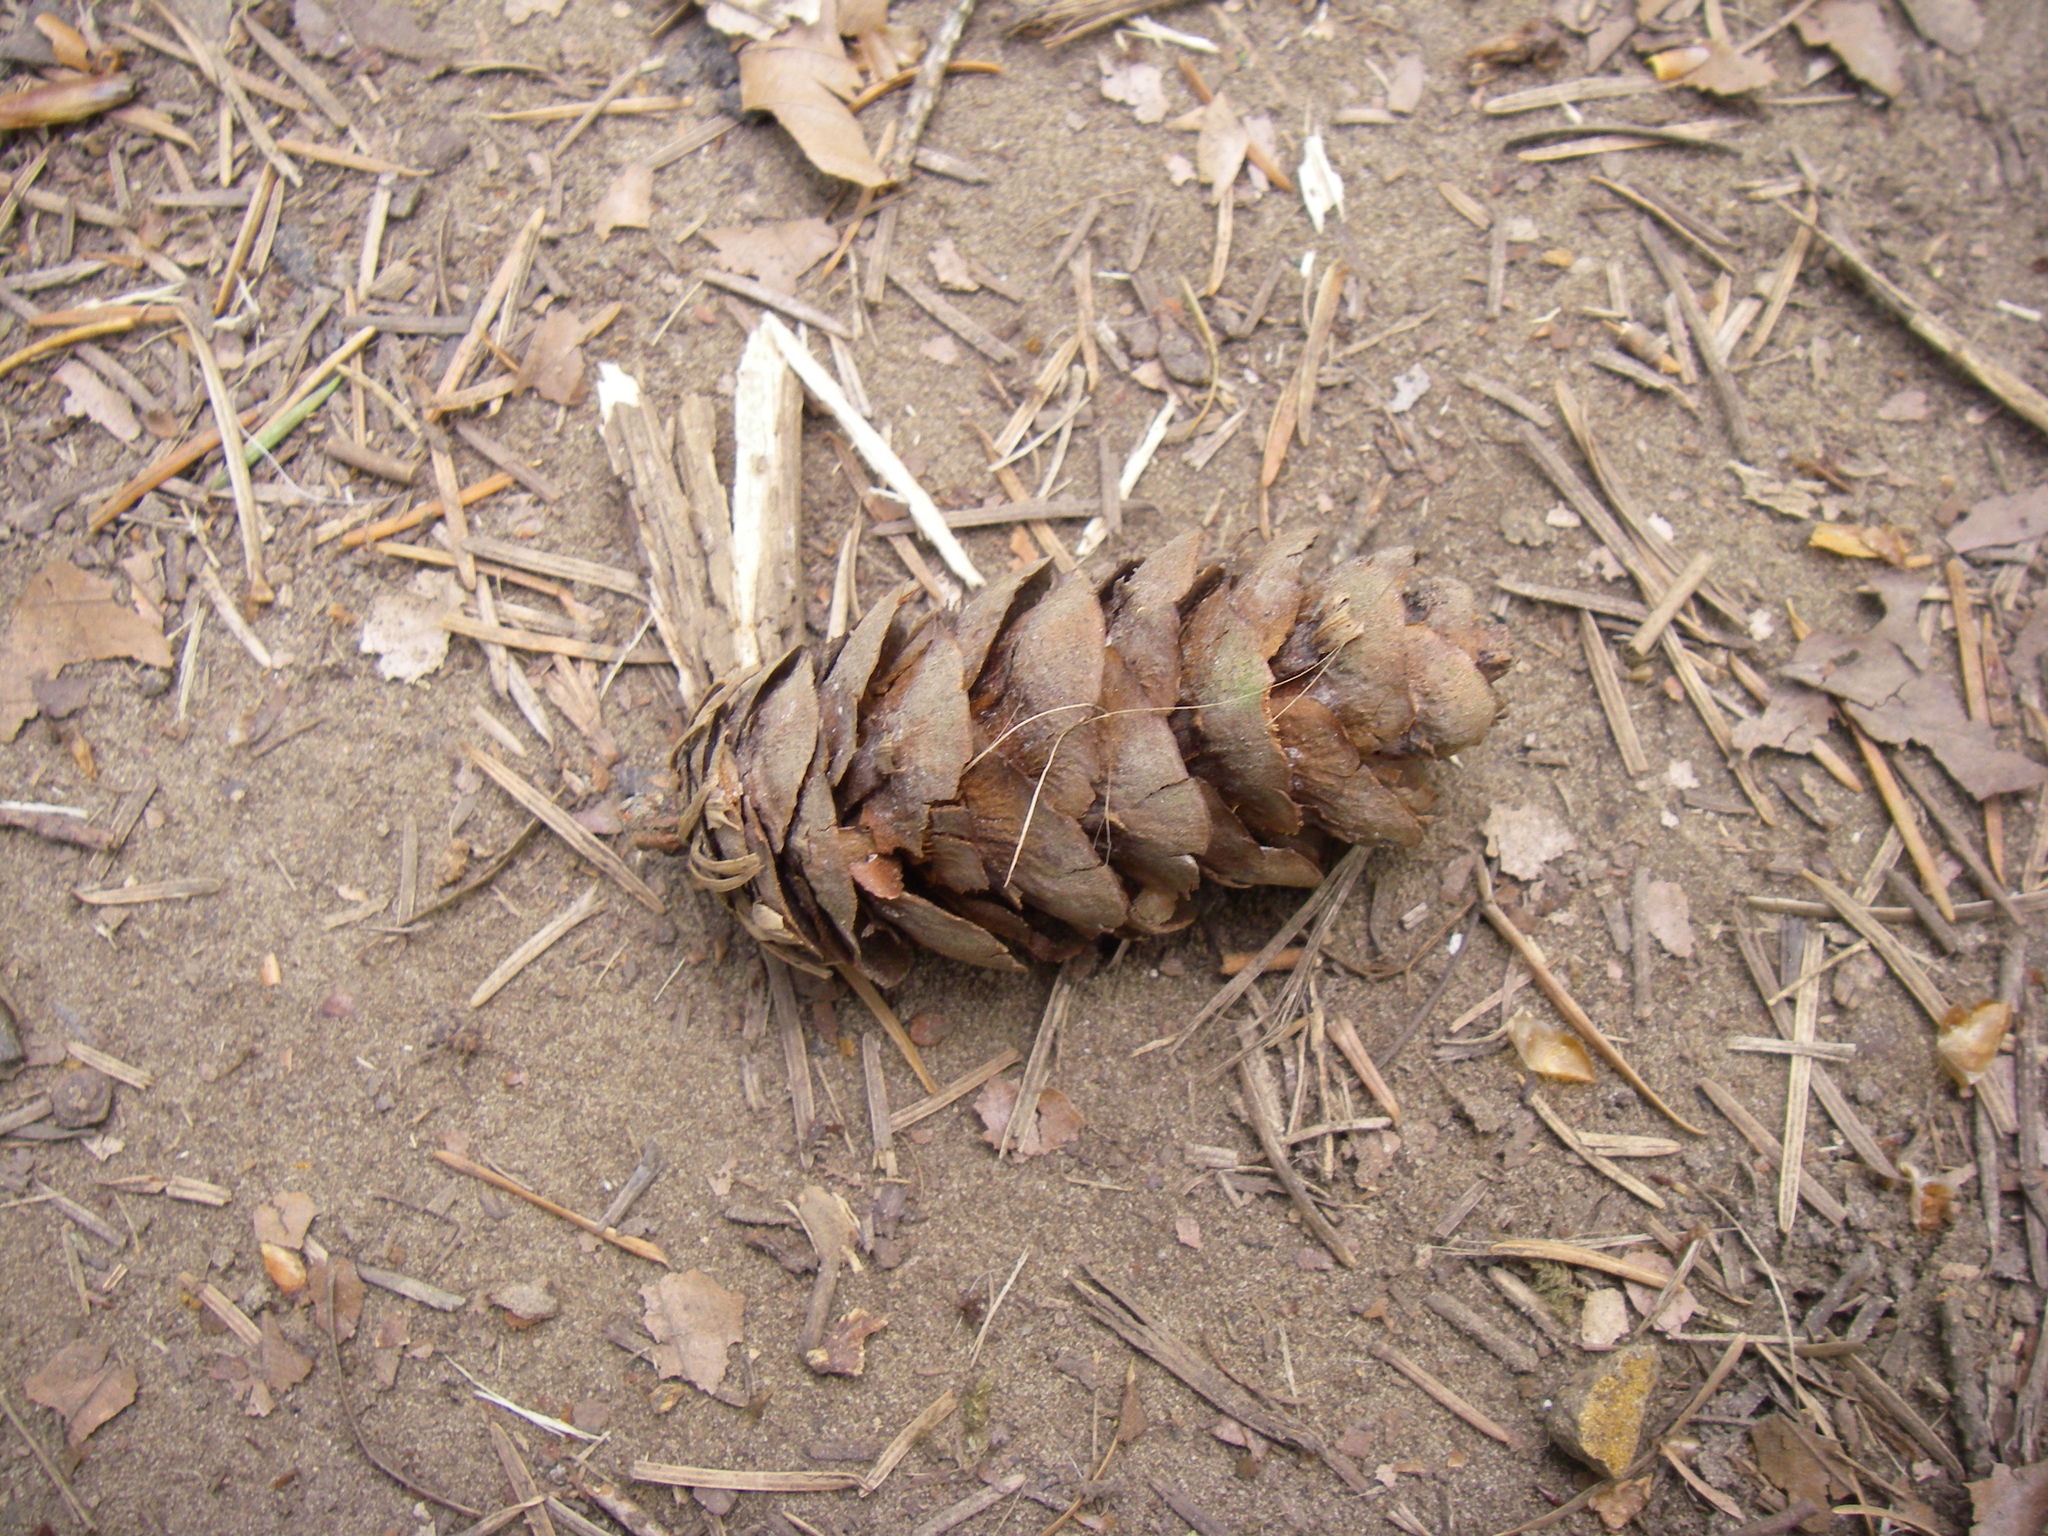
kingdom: Plantae
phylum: Tracheophyta
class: Pinopsida
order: Pinales
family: Pinaceae
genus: Pseudotsuga
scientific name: Pseudotsuga menziesii
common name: Douglas fir
